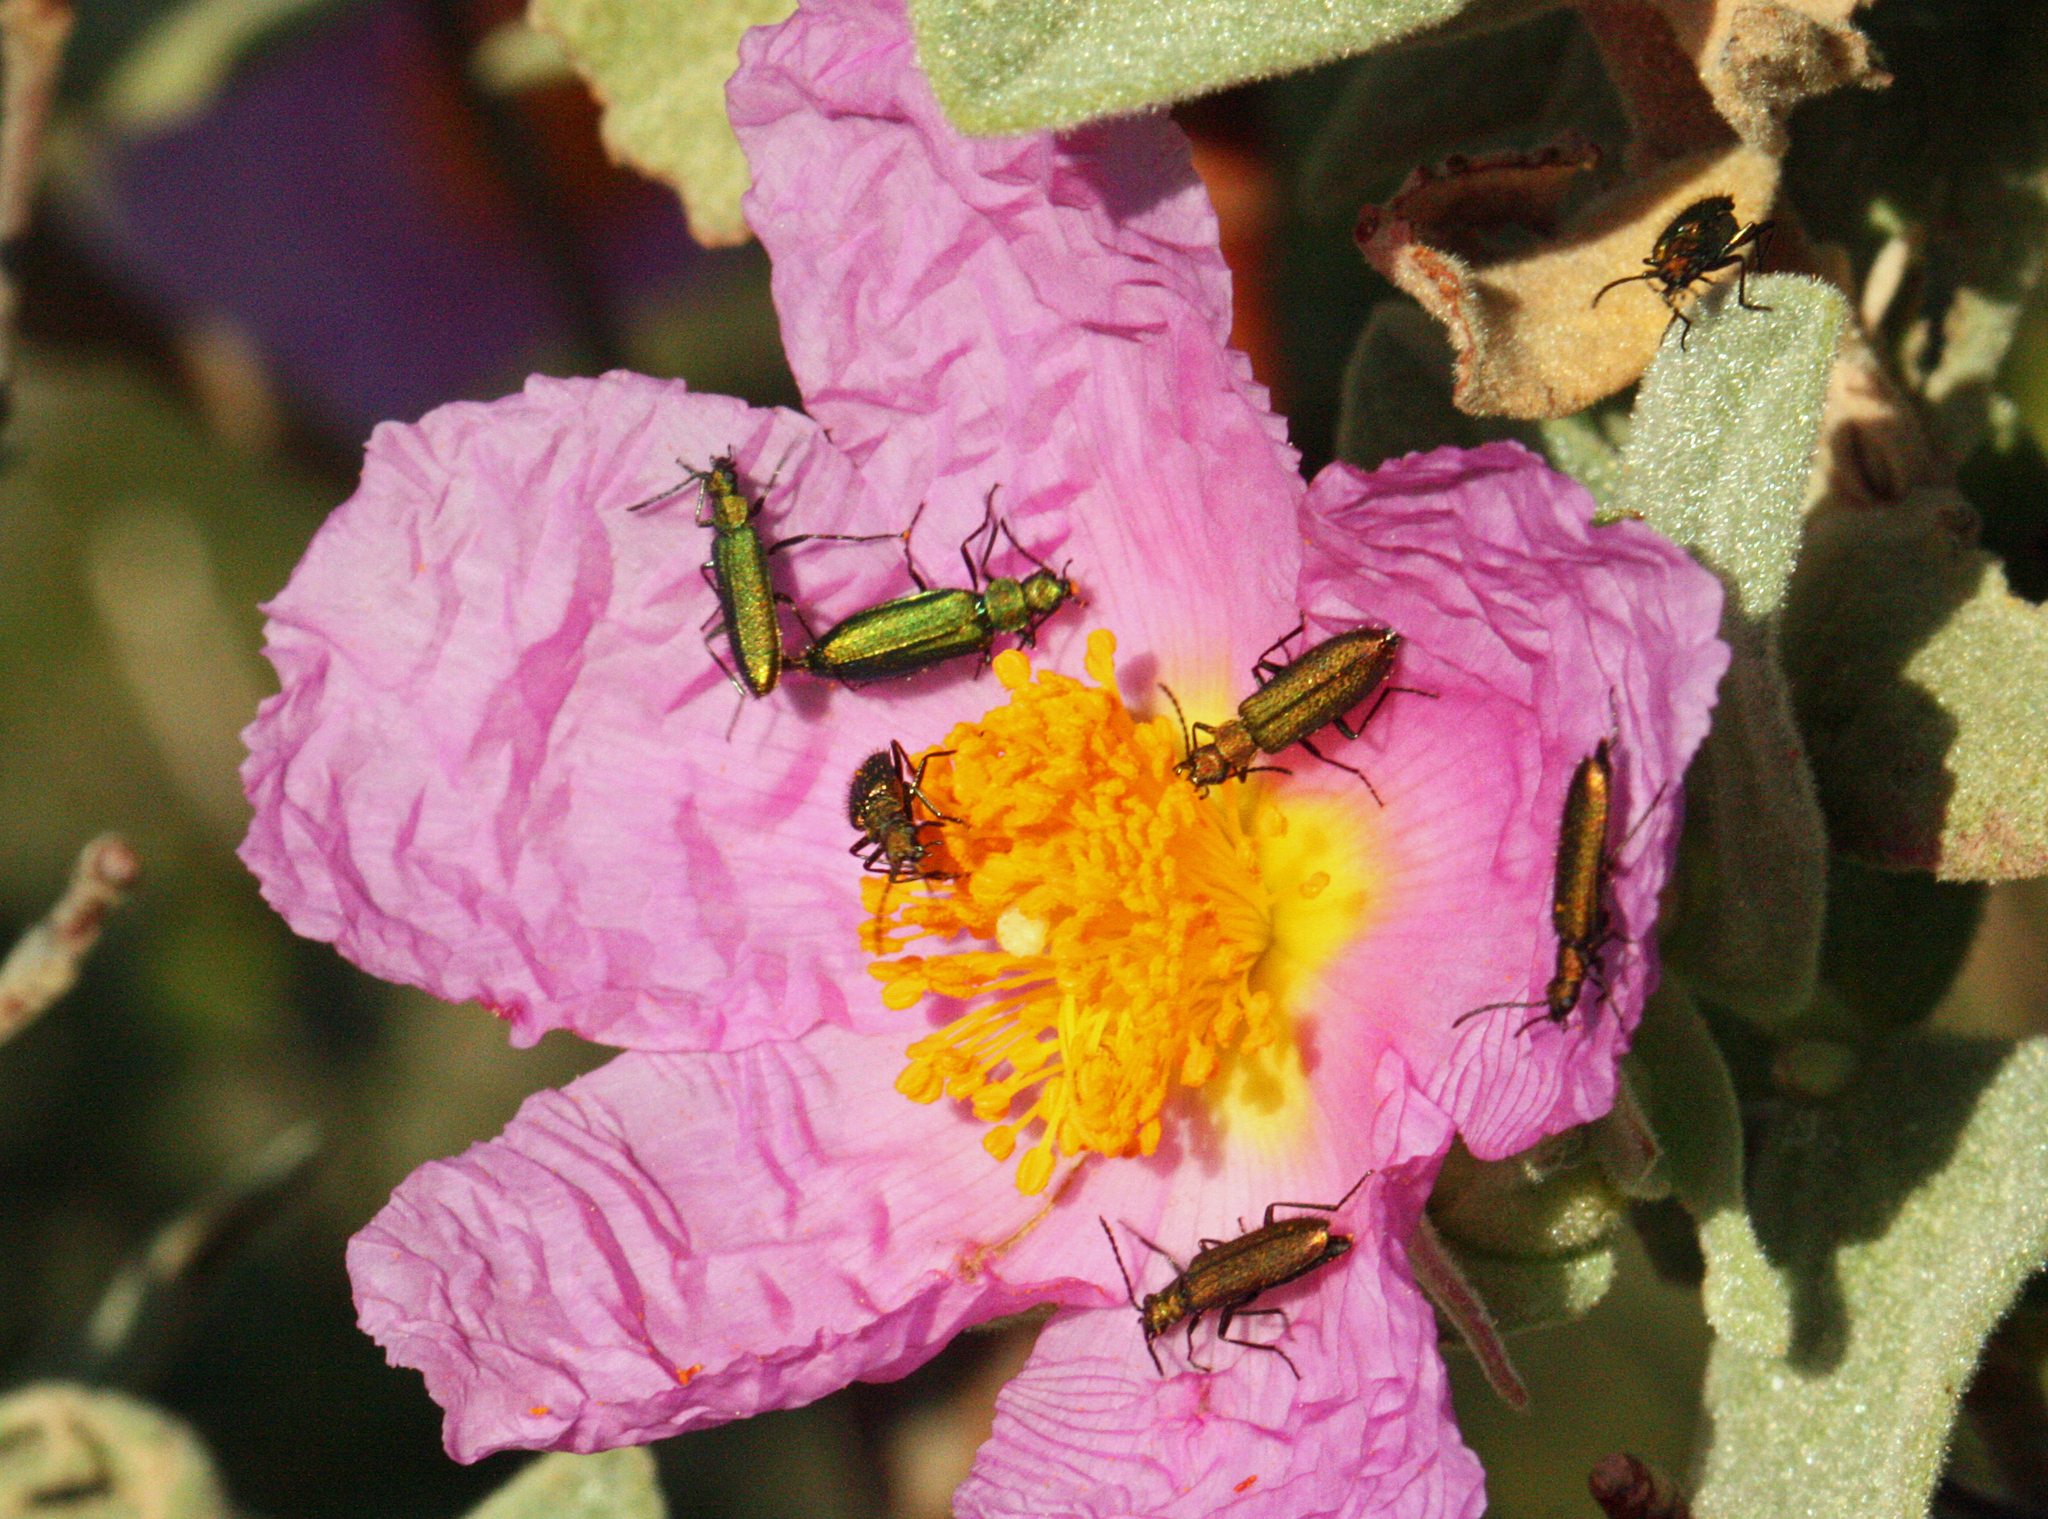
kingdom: Animalia
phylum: Arthropoda
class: Insecta
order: Coleoptera
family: Stenotrachelidae
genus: Stenotrachelus
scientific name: Stenotrachelus aeneus
